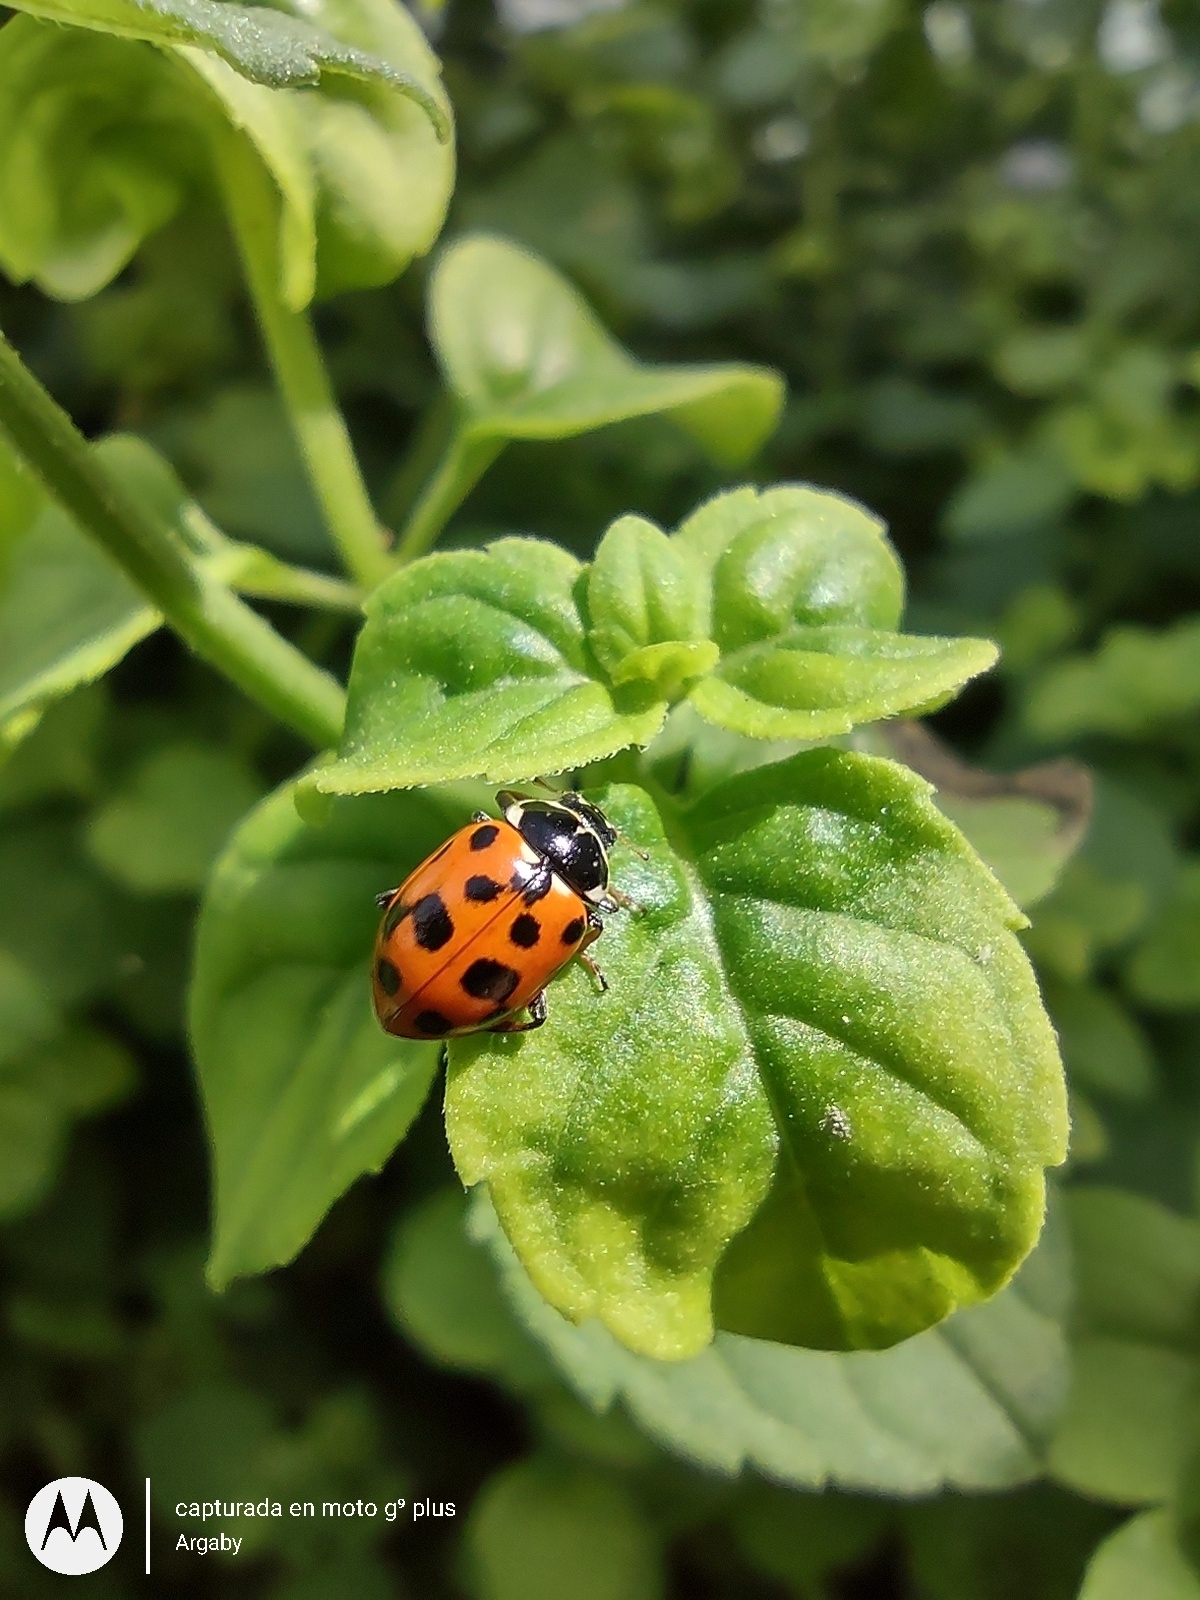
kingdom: Animalia
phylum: Arthropoda
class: Insecta
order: Coleoptera
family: Coccinellidae
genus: Hippodamia
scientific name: Hippodamia variegata
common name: Ladybird beetle
